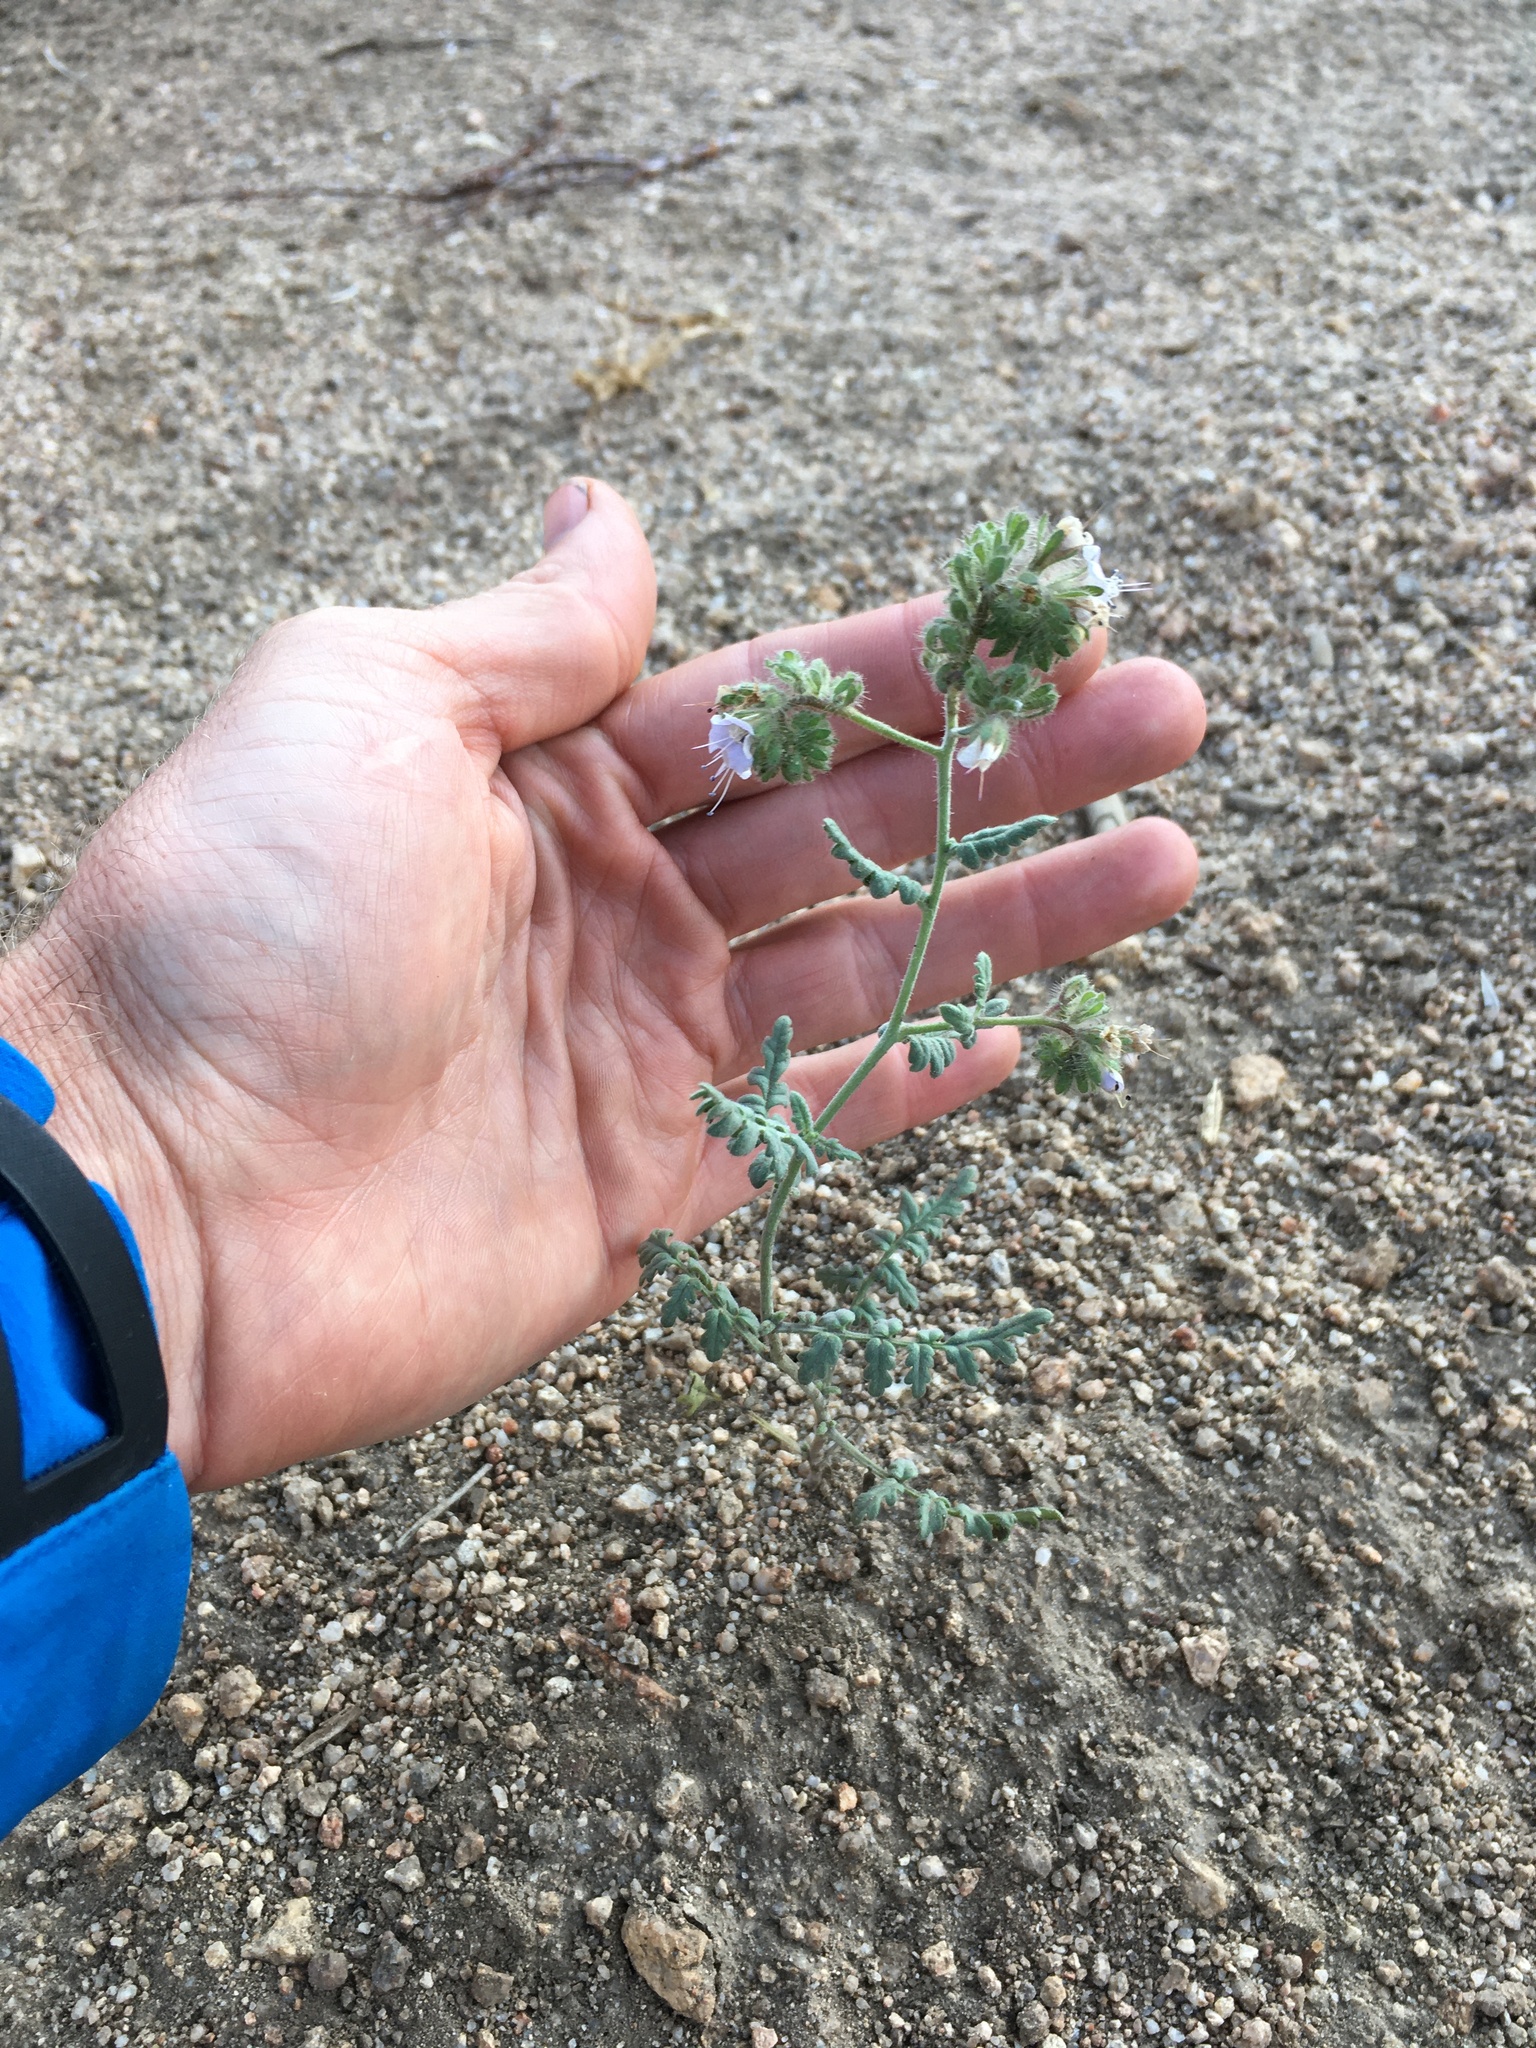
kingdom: Plantae
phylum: Tracheophyta
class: Magnoliopsida
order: Boraginales
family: Hydrophyllaceae
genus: Phacelia
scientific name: Phacelia ramosissima
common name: Branching phacelia
